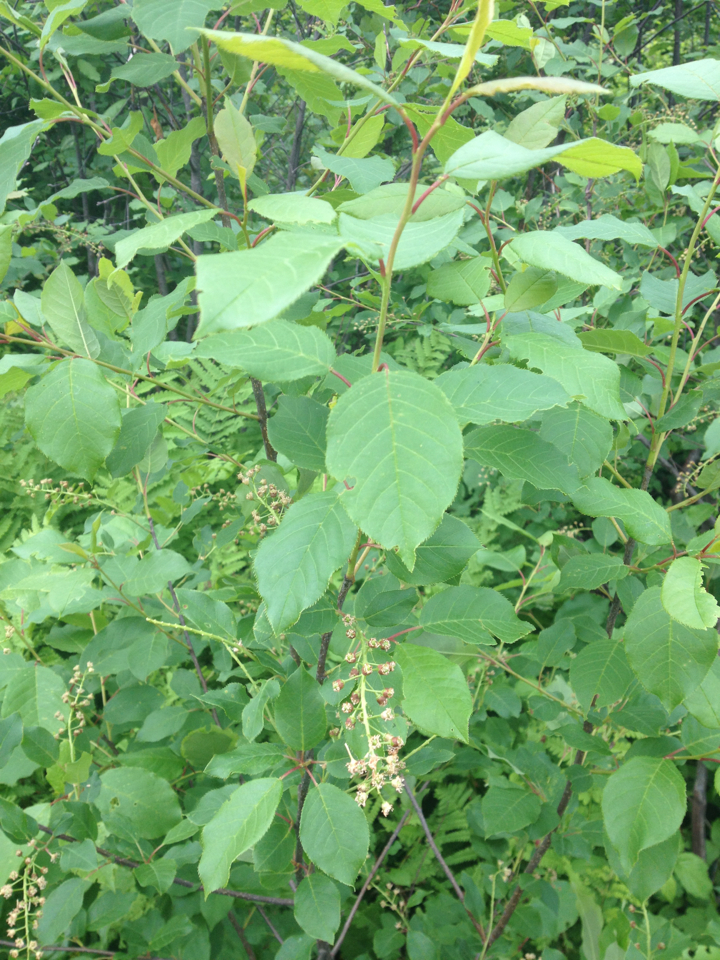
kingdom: Plantae
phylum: Tracheophyta
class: Magnoliopsida
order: Rosales
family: Rosaceae
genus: Prunus
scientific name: Prunus virginiana
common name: Chokecherry
